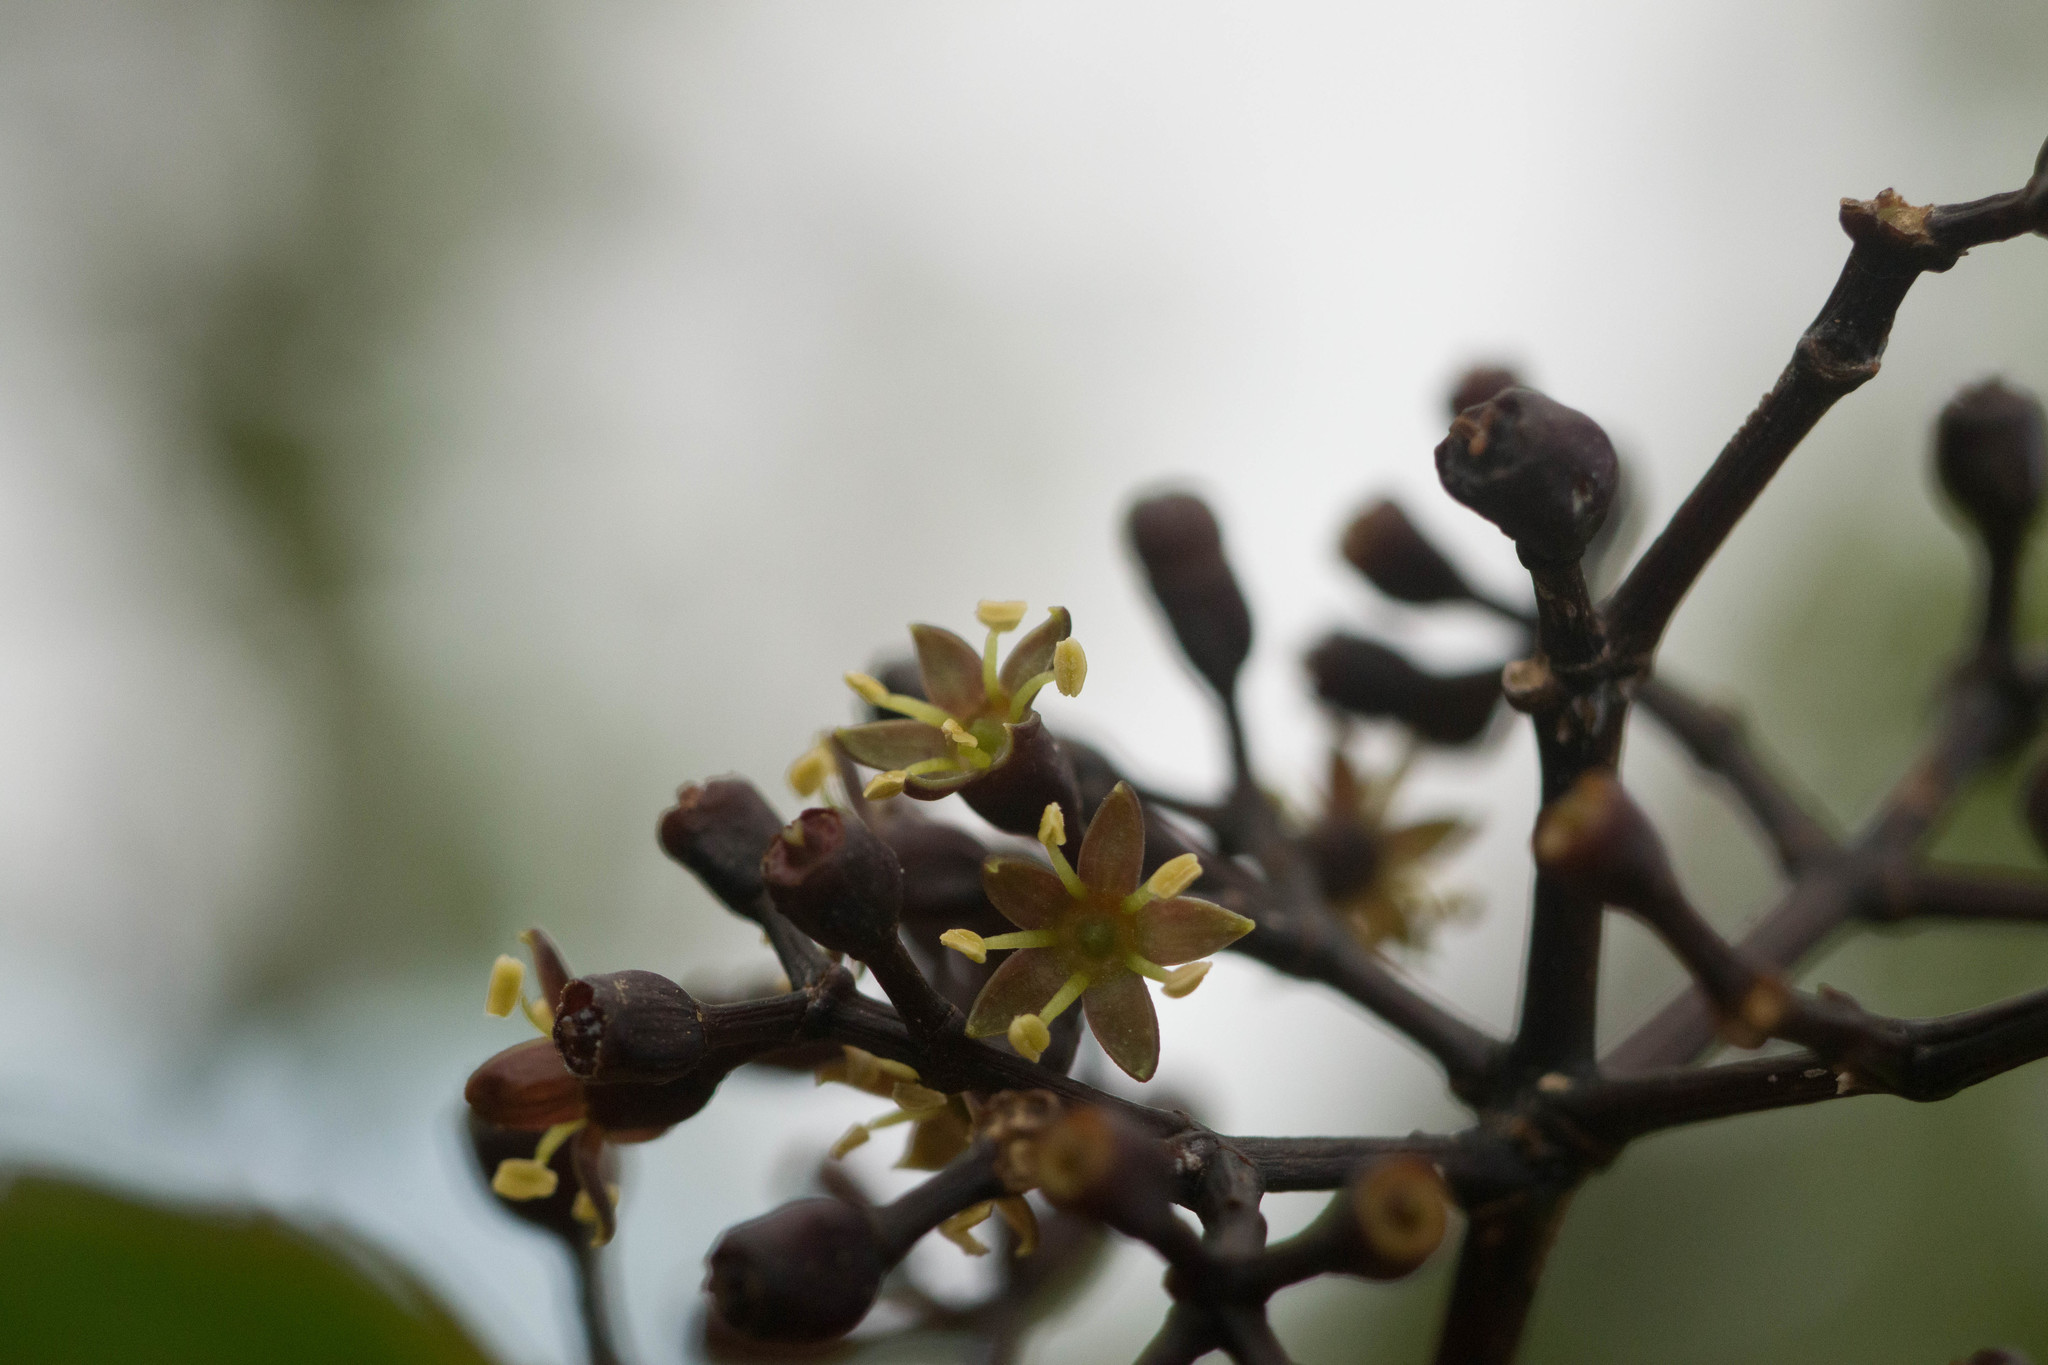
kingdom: Plantae
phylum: Tracheophyta
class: Magnoliopsida
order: Apiales
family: Araliaceae
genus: Cheirodendron
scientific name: Cheirodendron trigynum
